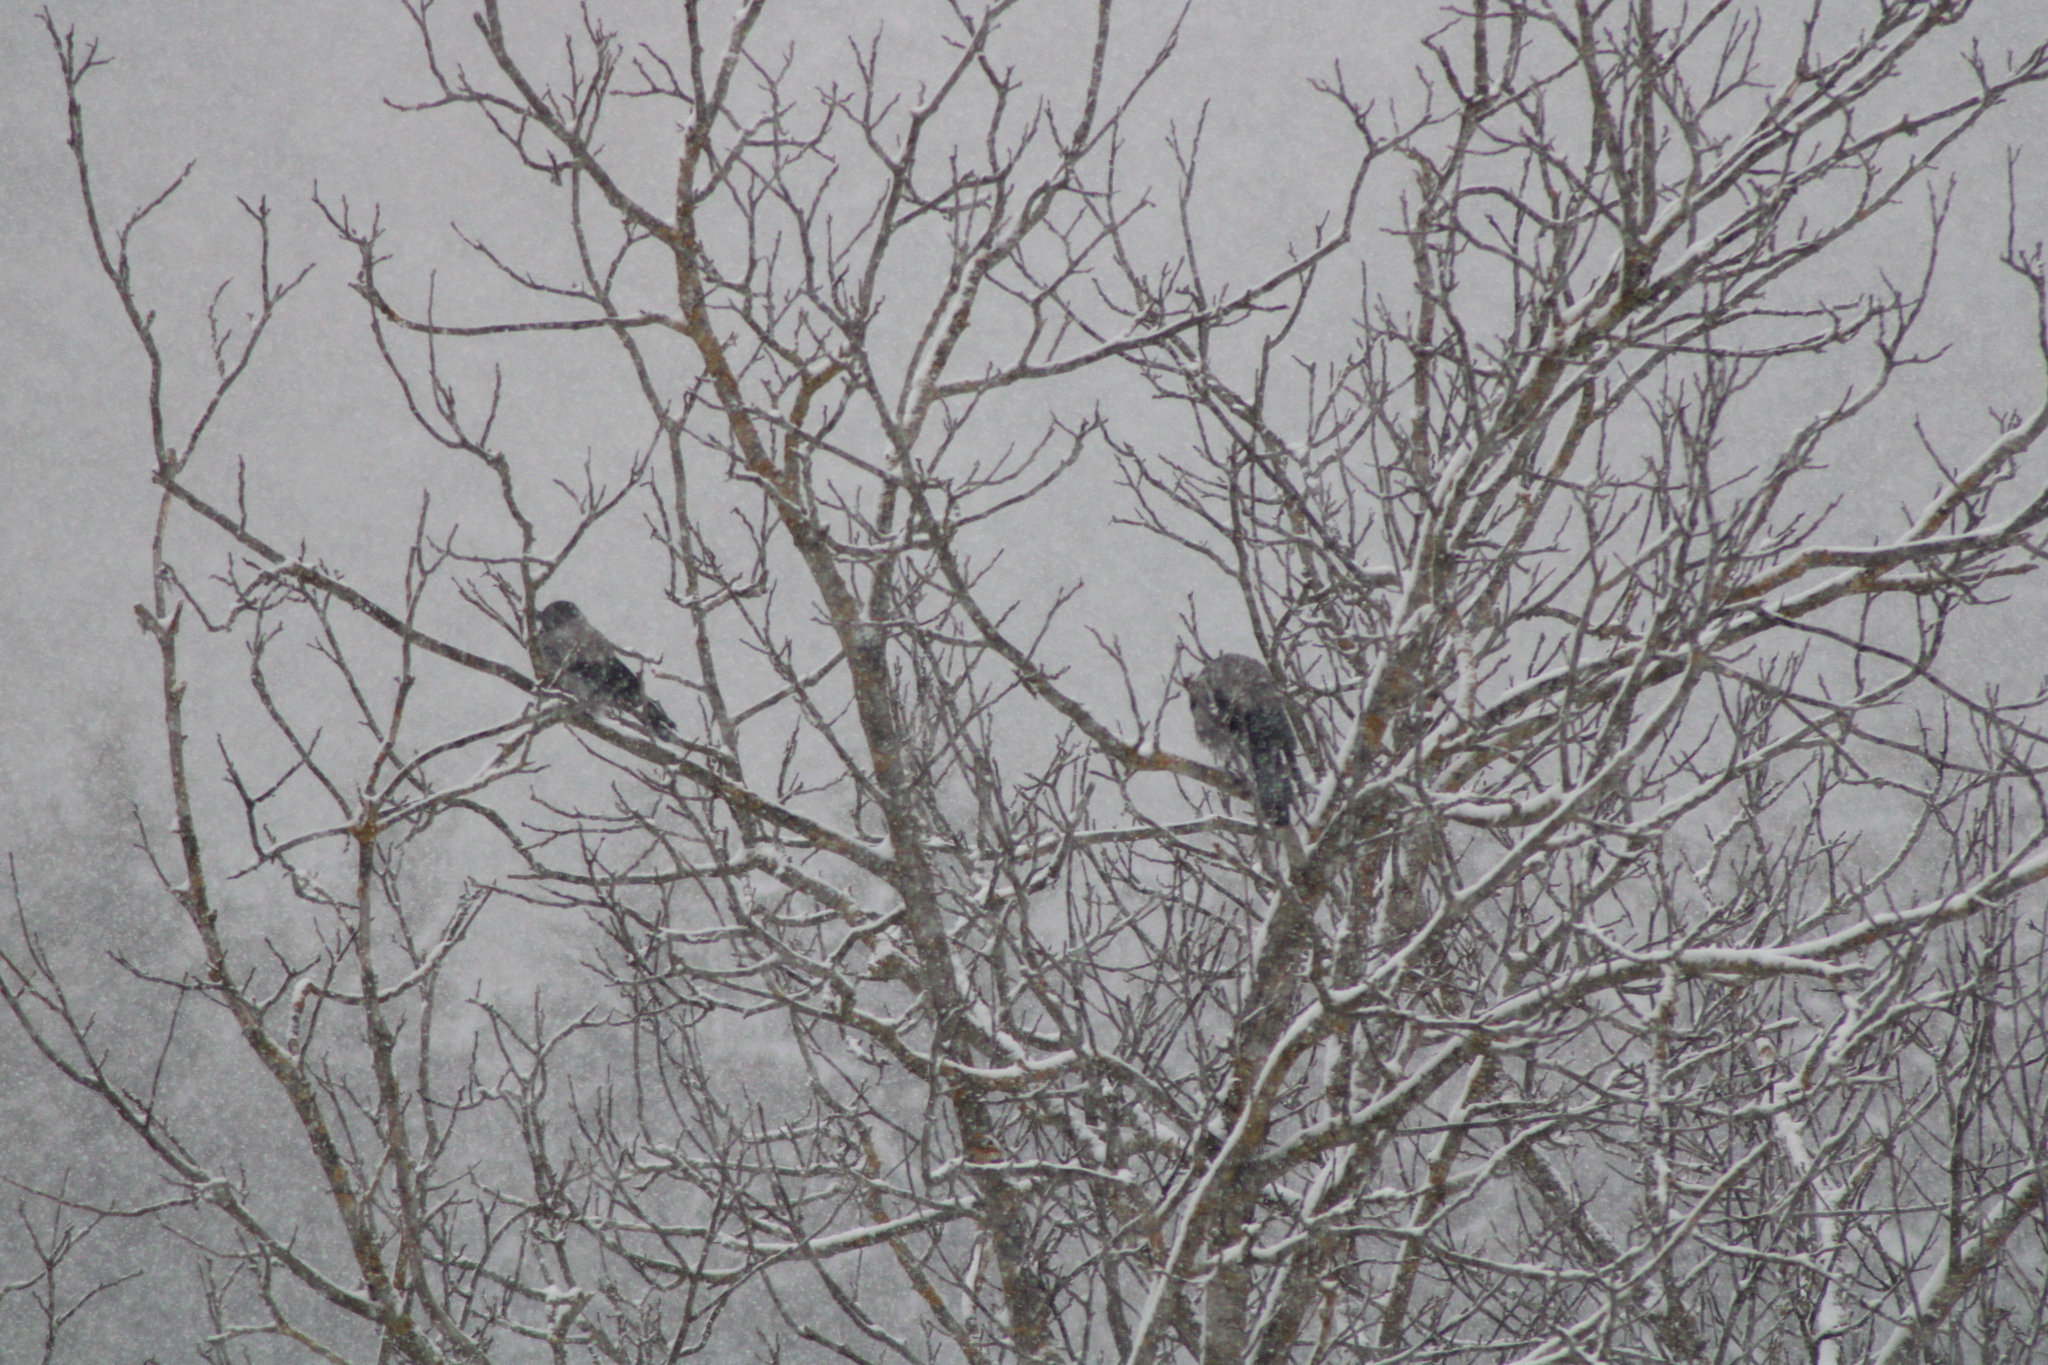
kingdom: Animalia
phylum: Chordata
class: Aves
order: Passeriformes
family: Corvidae
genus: Corvus
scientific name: Corvus cornix
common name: Hooded crow
